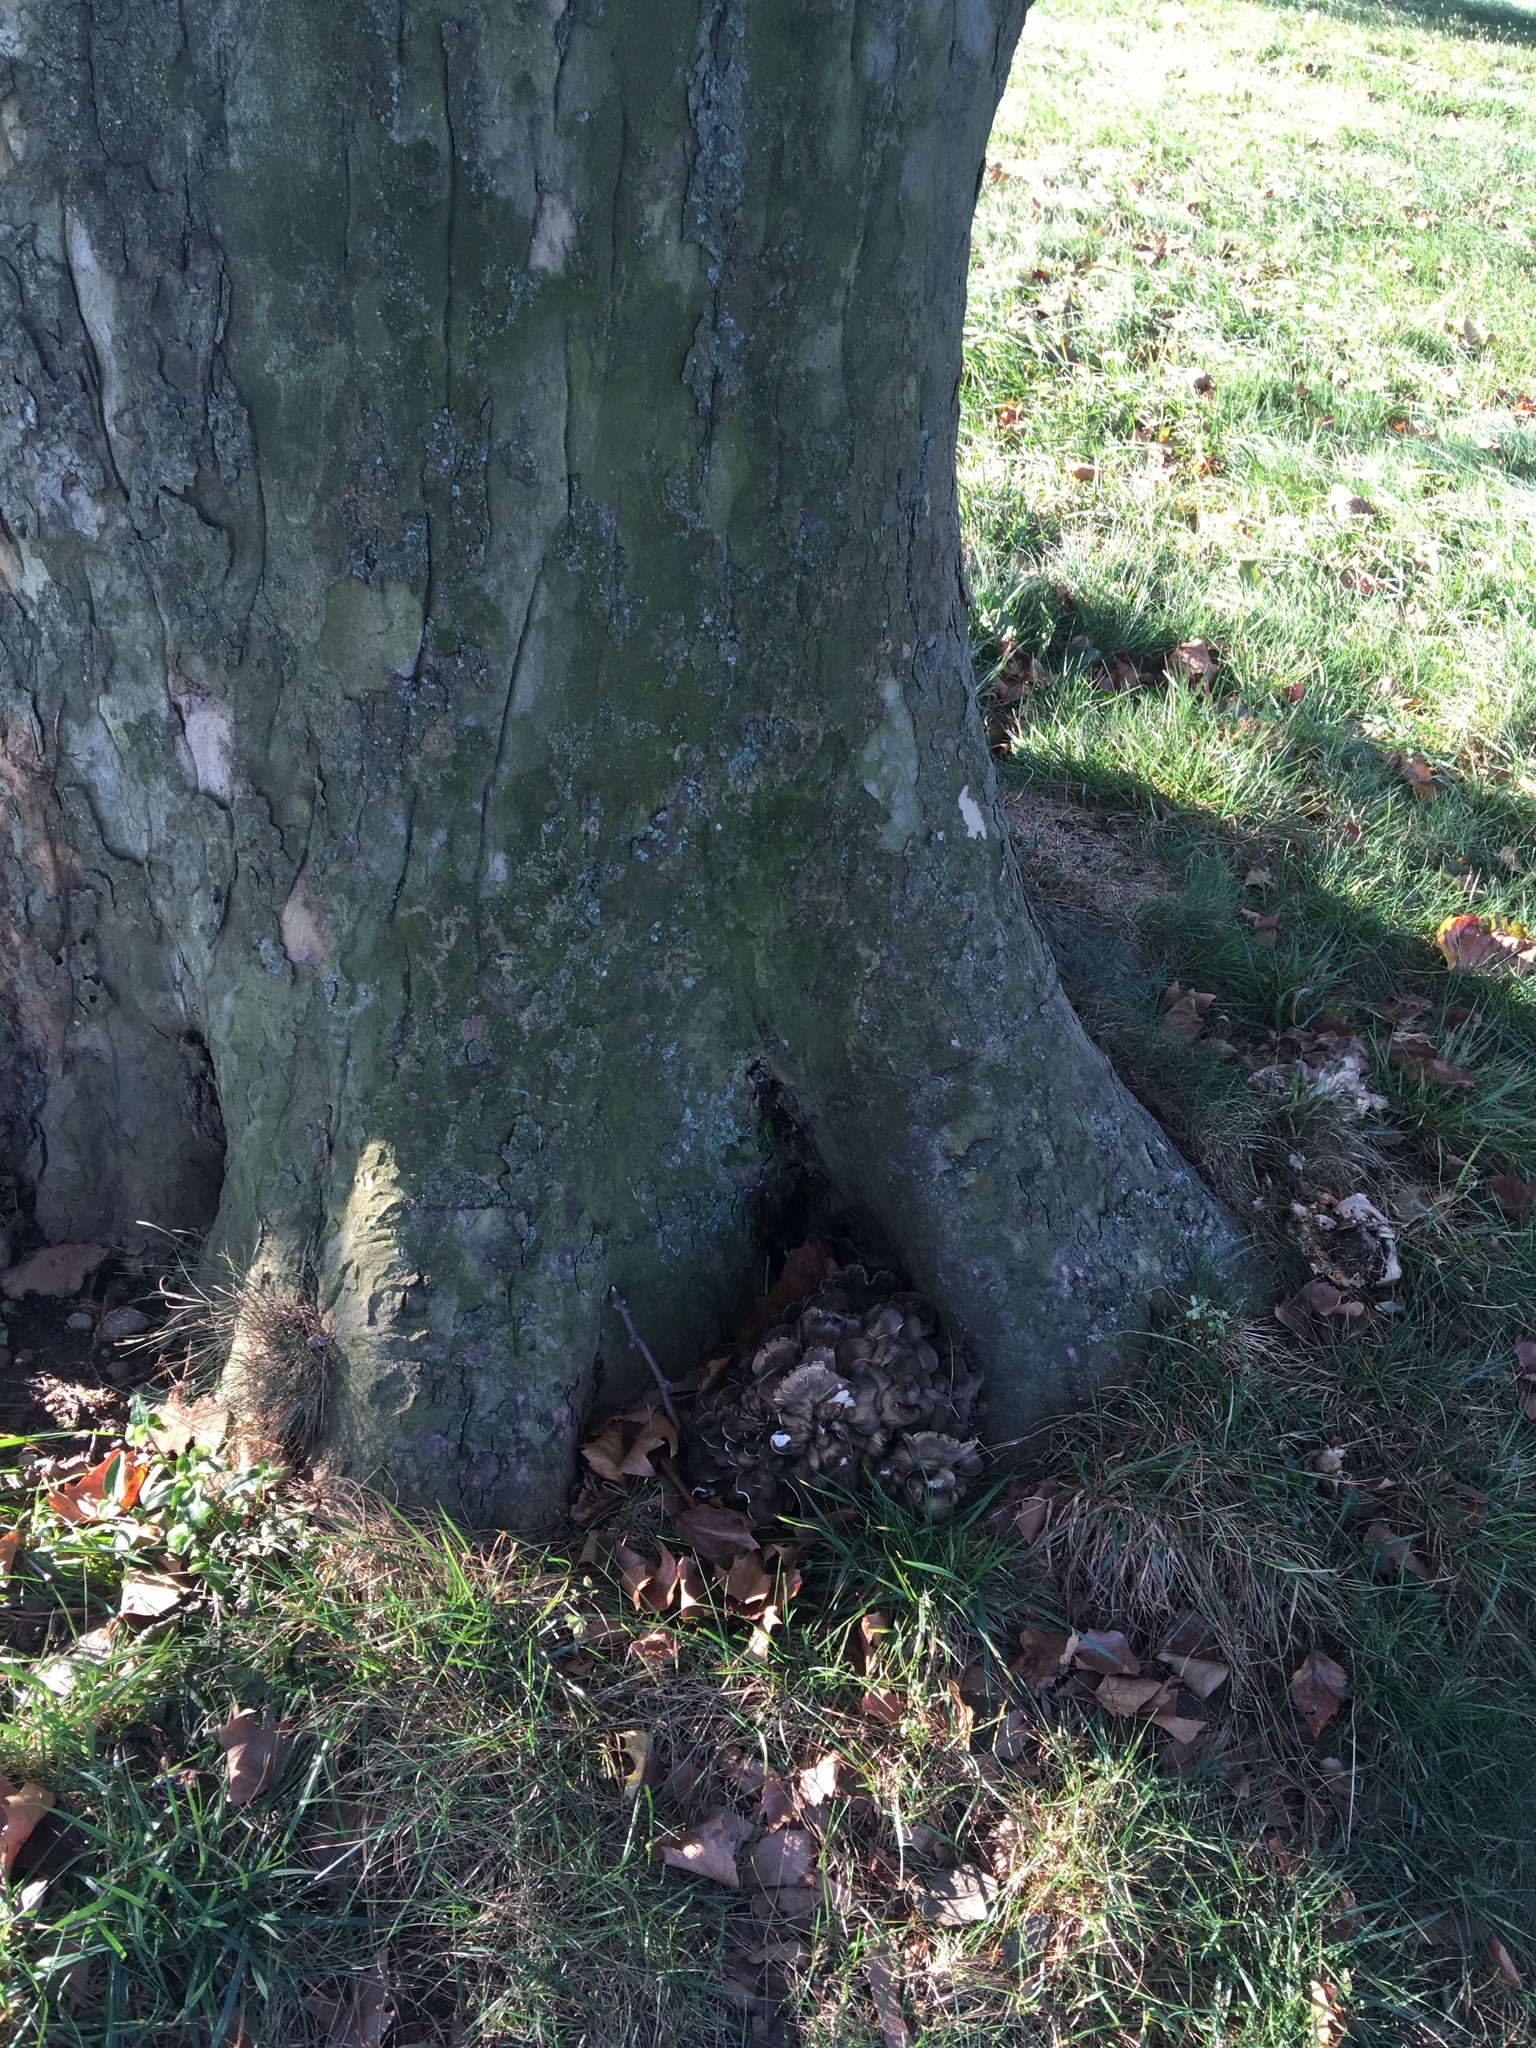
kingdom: Fungi
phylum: Basidiomycota
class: Agaricomycetes
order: Polyporales
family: Grifolaceae
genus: Grifola
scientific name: Grifola frondosa
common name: Hen of the woods
